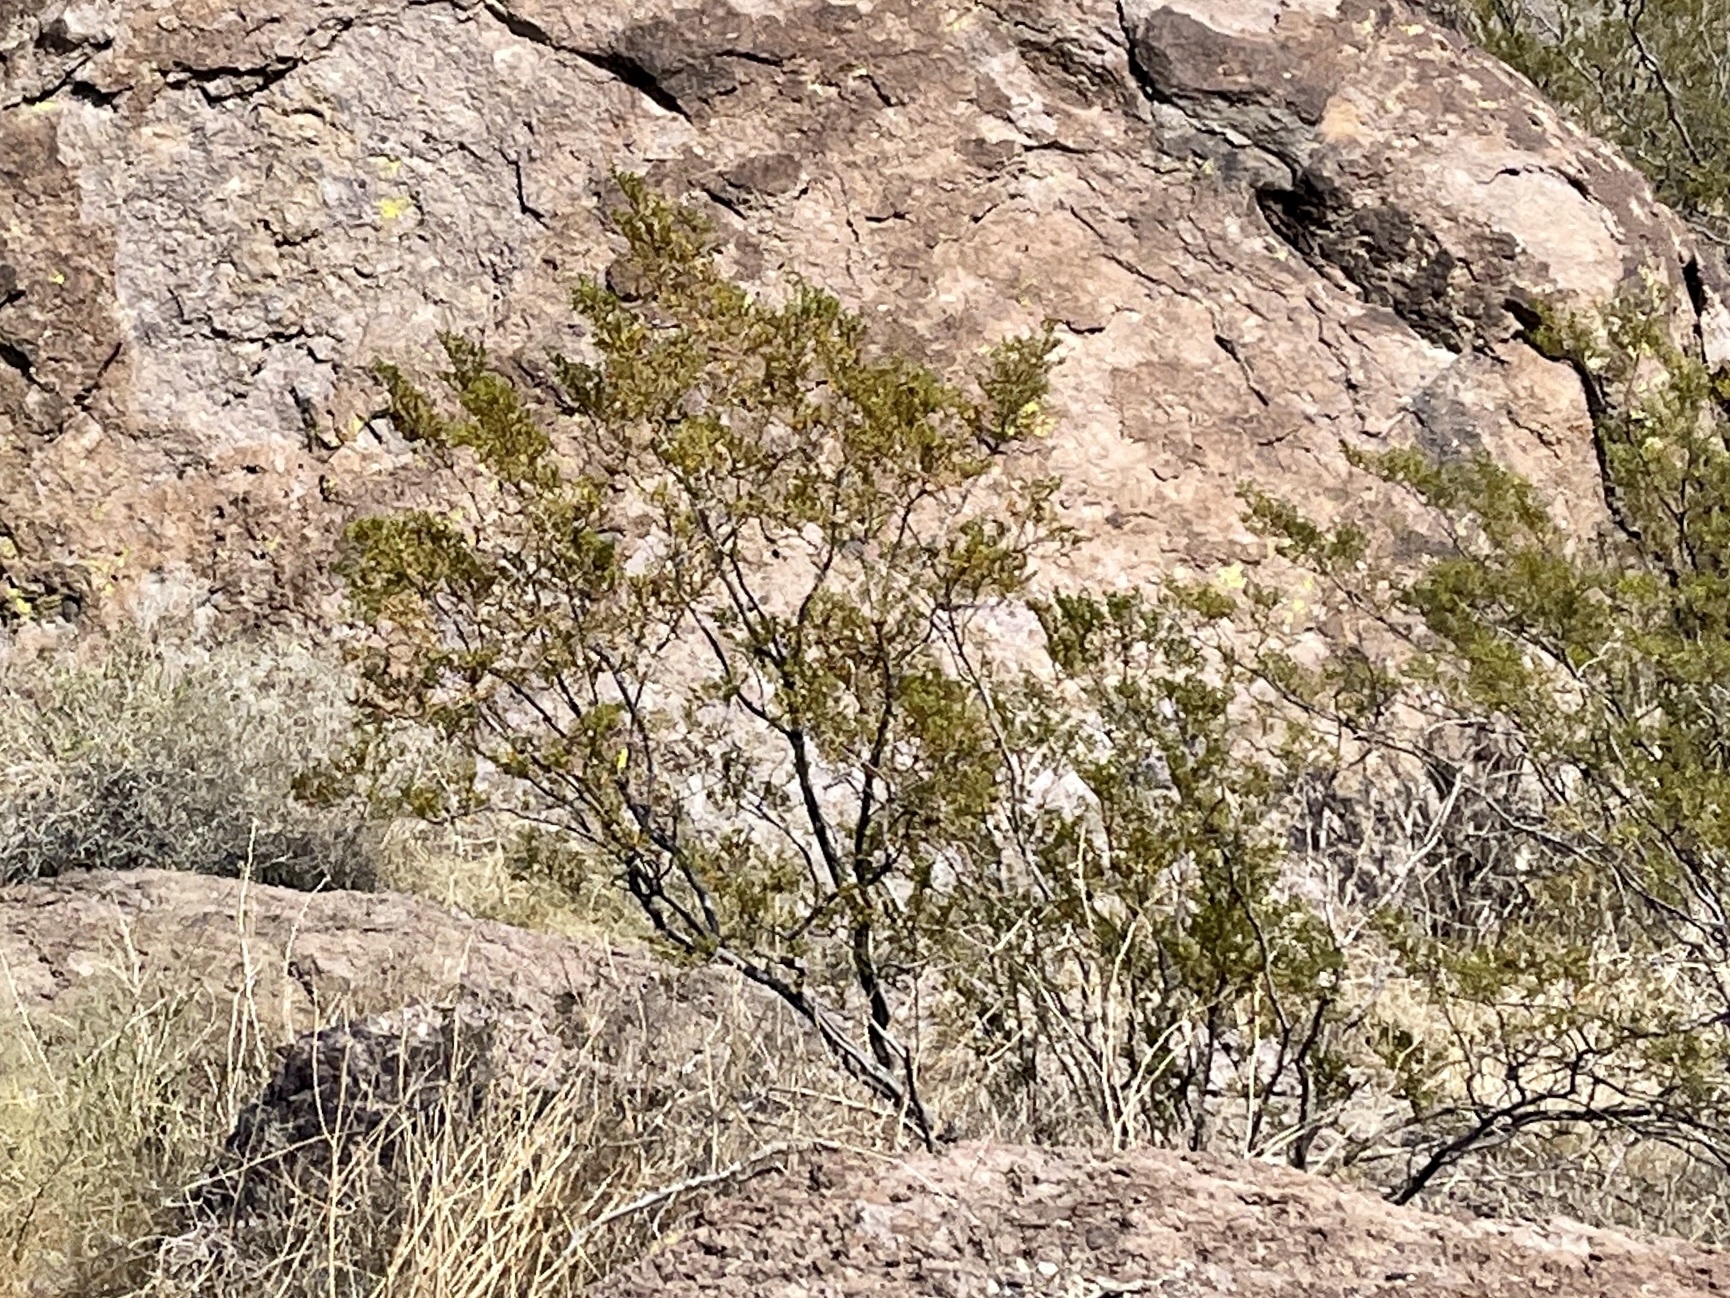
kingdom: Plantae
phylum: Tracheophyta
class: Magnoliopsida
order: Zygophyllales
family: Zygophyllaceae
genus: Larrea
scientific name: Larrea tridentata
